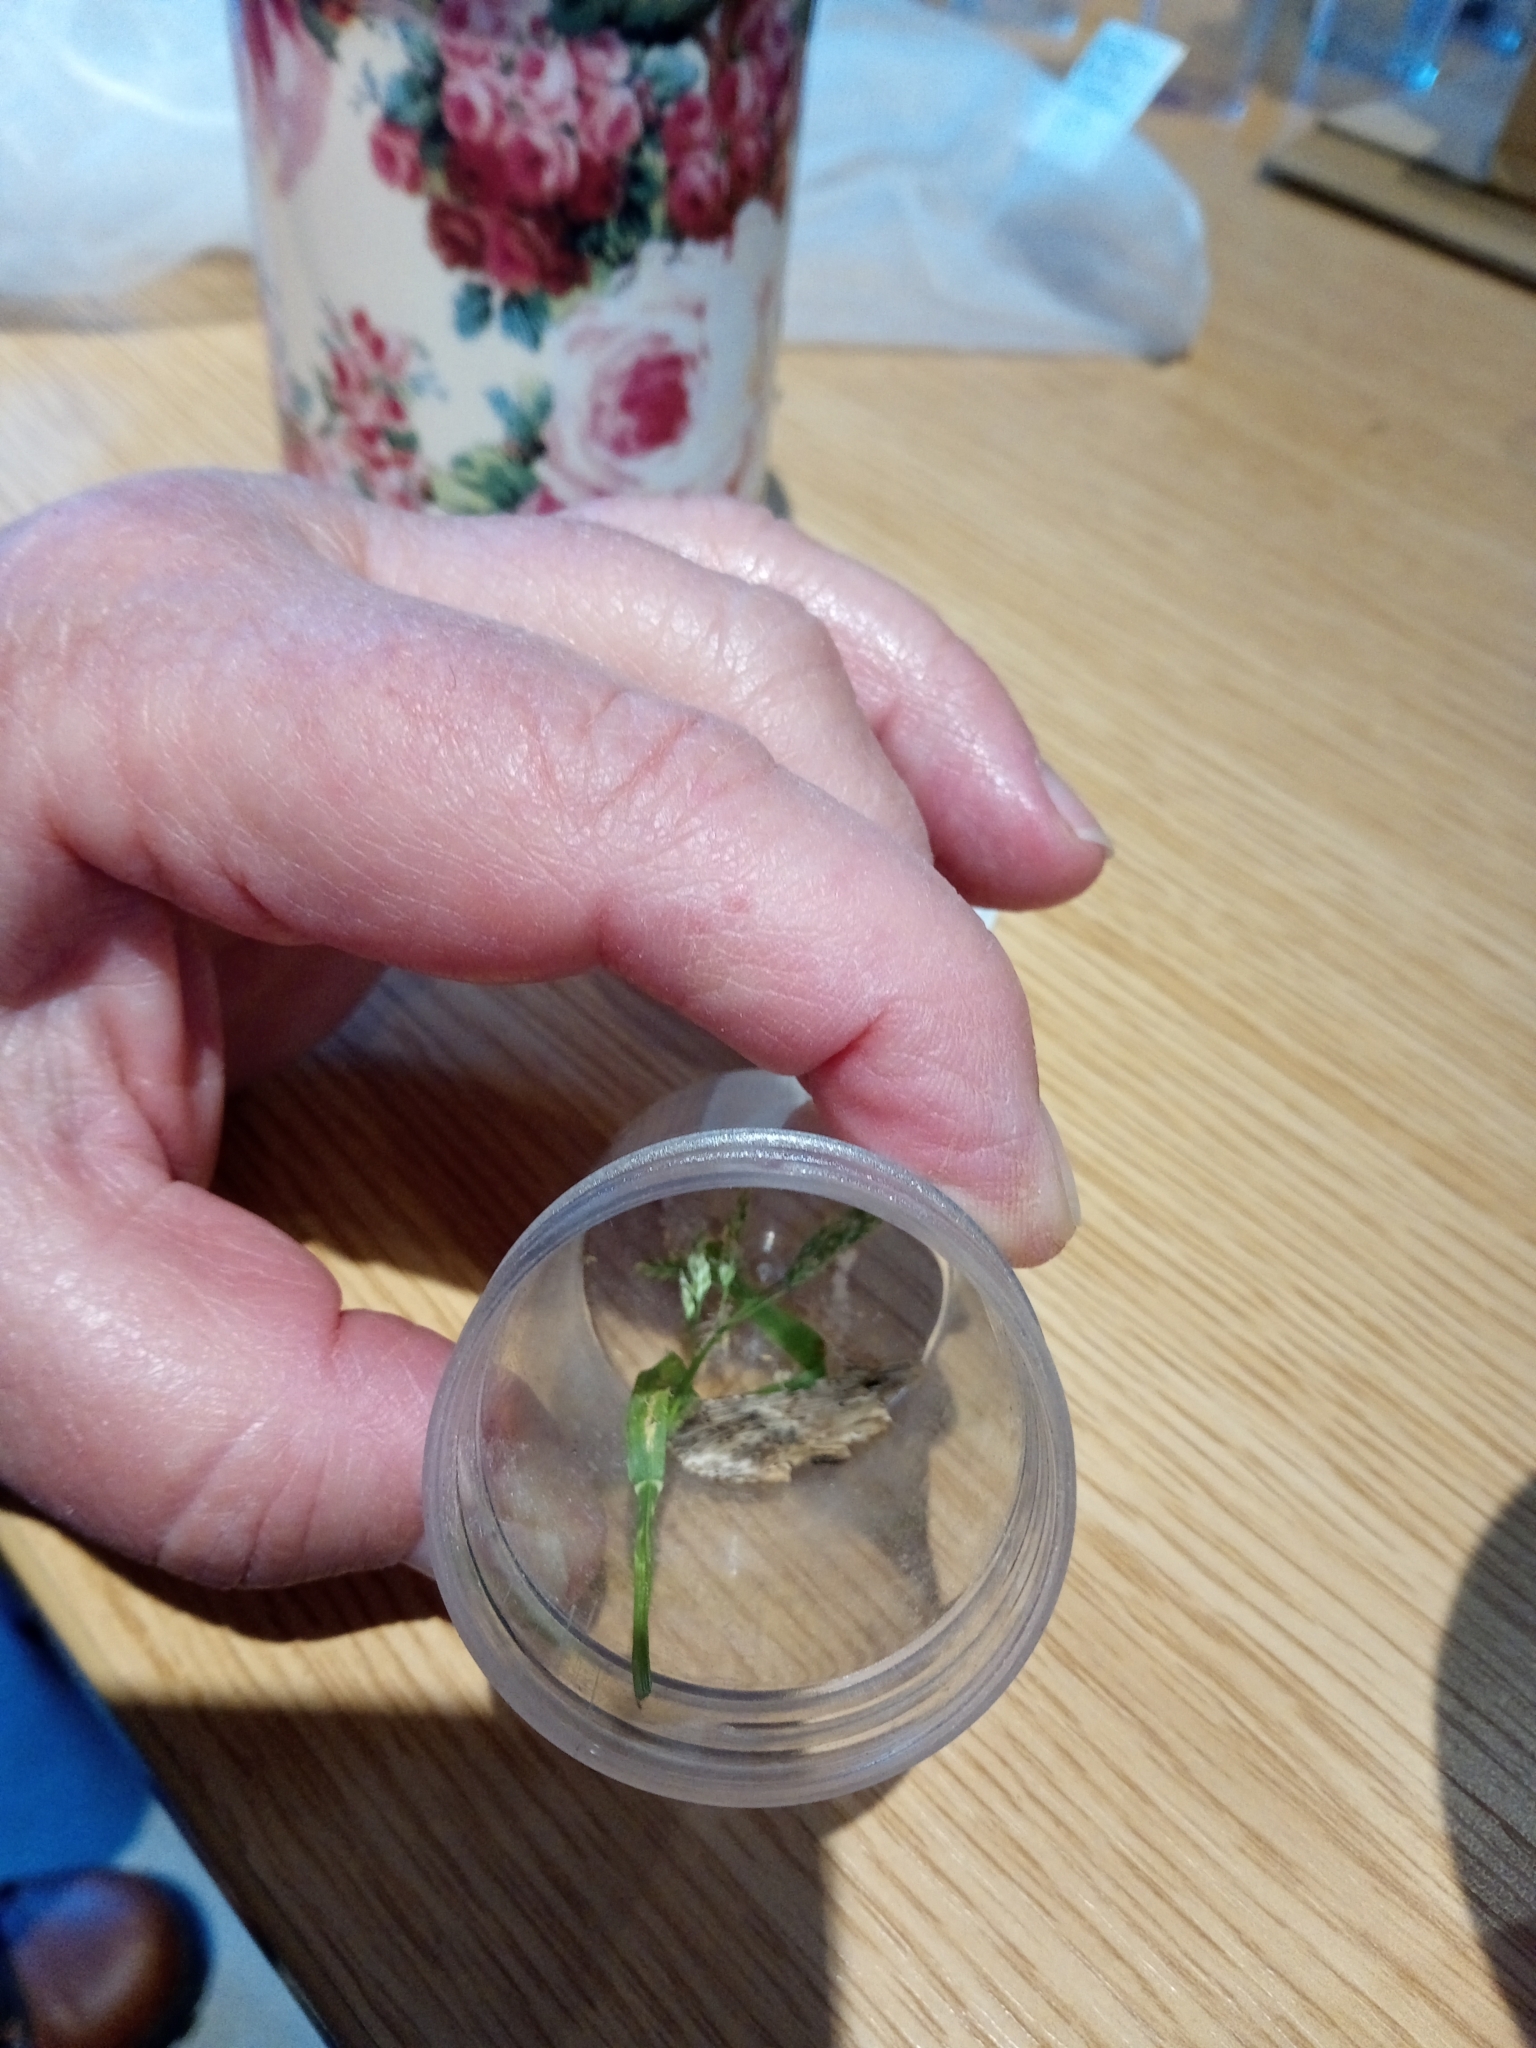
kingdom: Animalia
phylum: Arthropoda
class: Insecta
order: Lepidoptera
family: Notodontidae
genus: Pterostoma
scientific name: Pterostoma palpina
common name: Pale prominent
